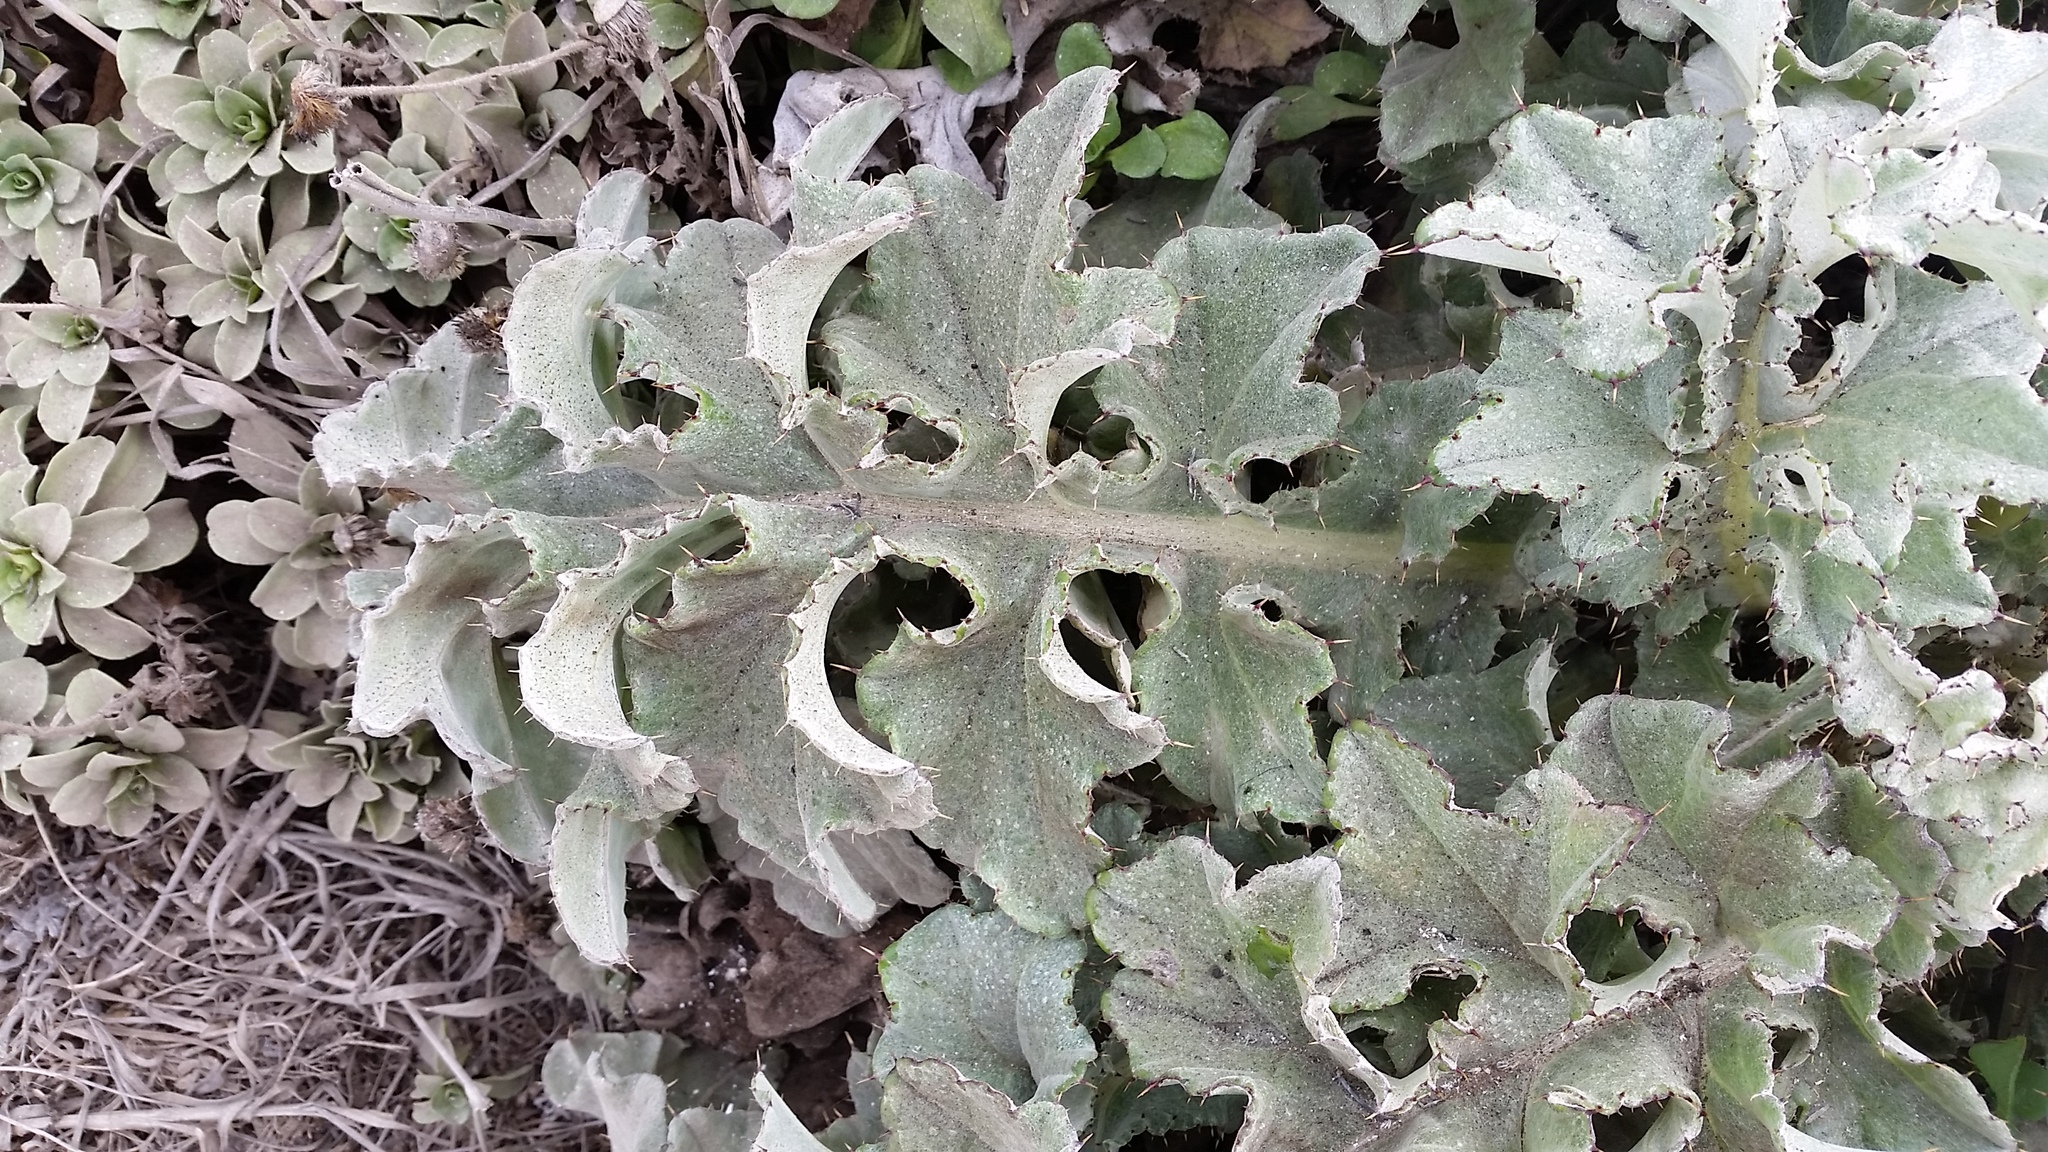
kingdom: Plantae
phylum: Tracheophyta
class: Magnoliopsida
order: Ranunculales
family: Papaveraceae
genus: Glaucium
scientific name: Glaucium flavum
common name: Yellow horned-poppy
